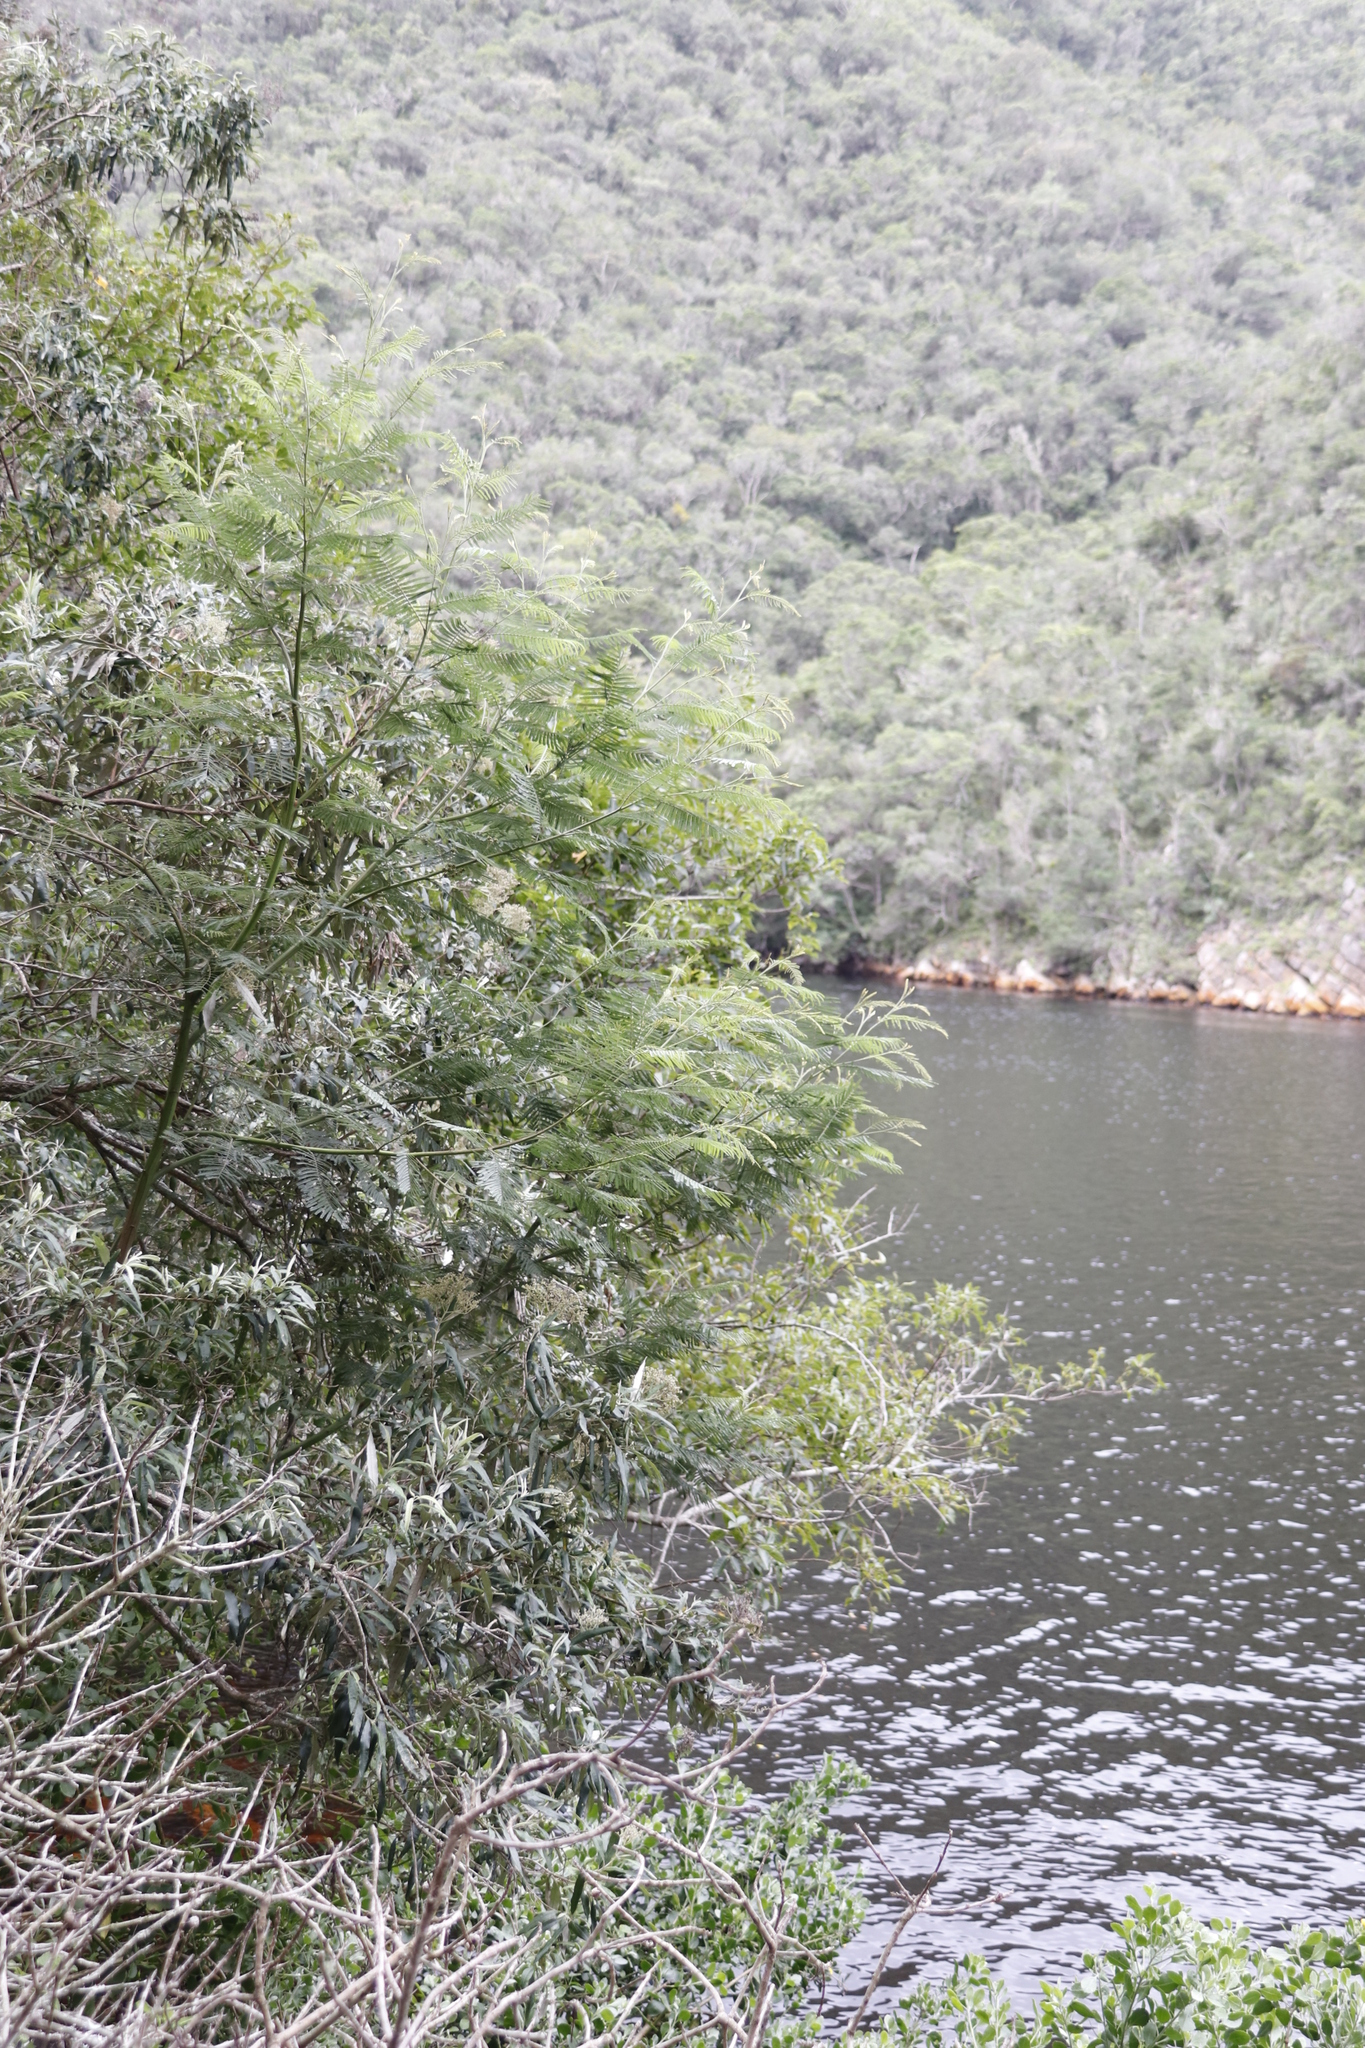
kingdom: Plantae
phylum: Tracheophyta
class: Magnoliopsida
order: Fabales
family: Fabaceae
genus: Acacia
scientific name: Acacia mearnsii
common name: Black wattle
